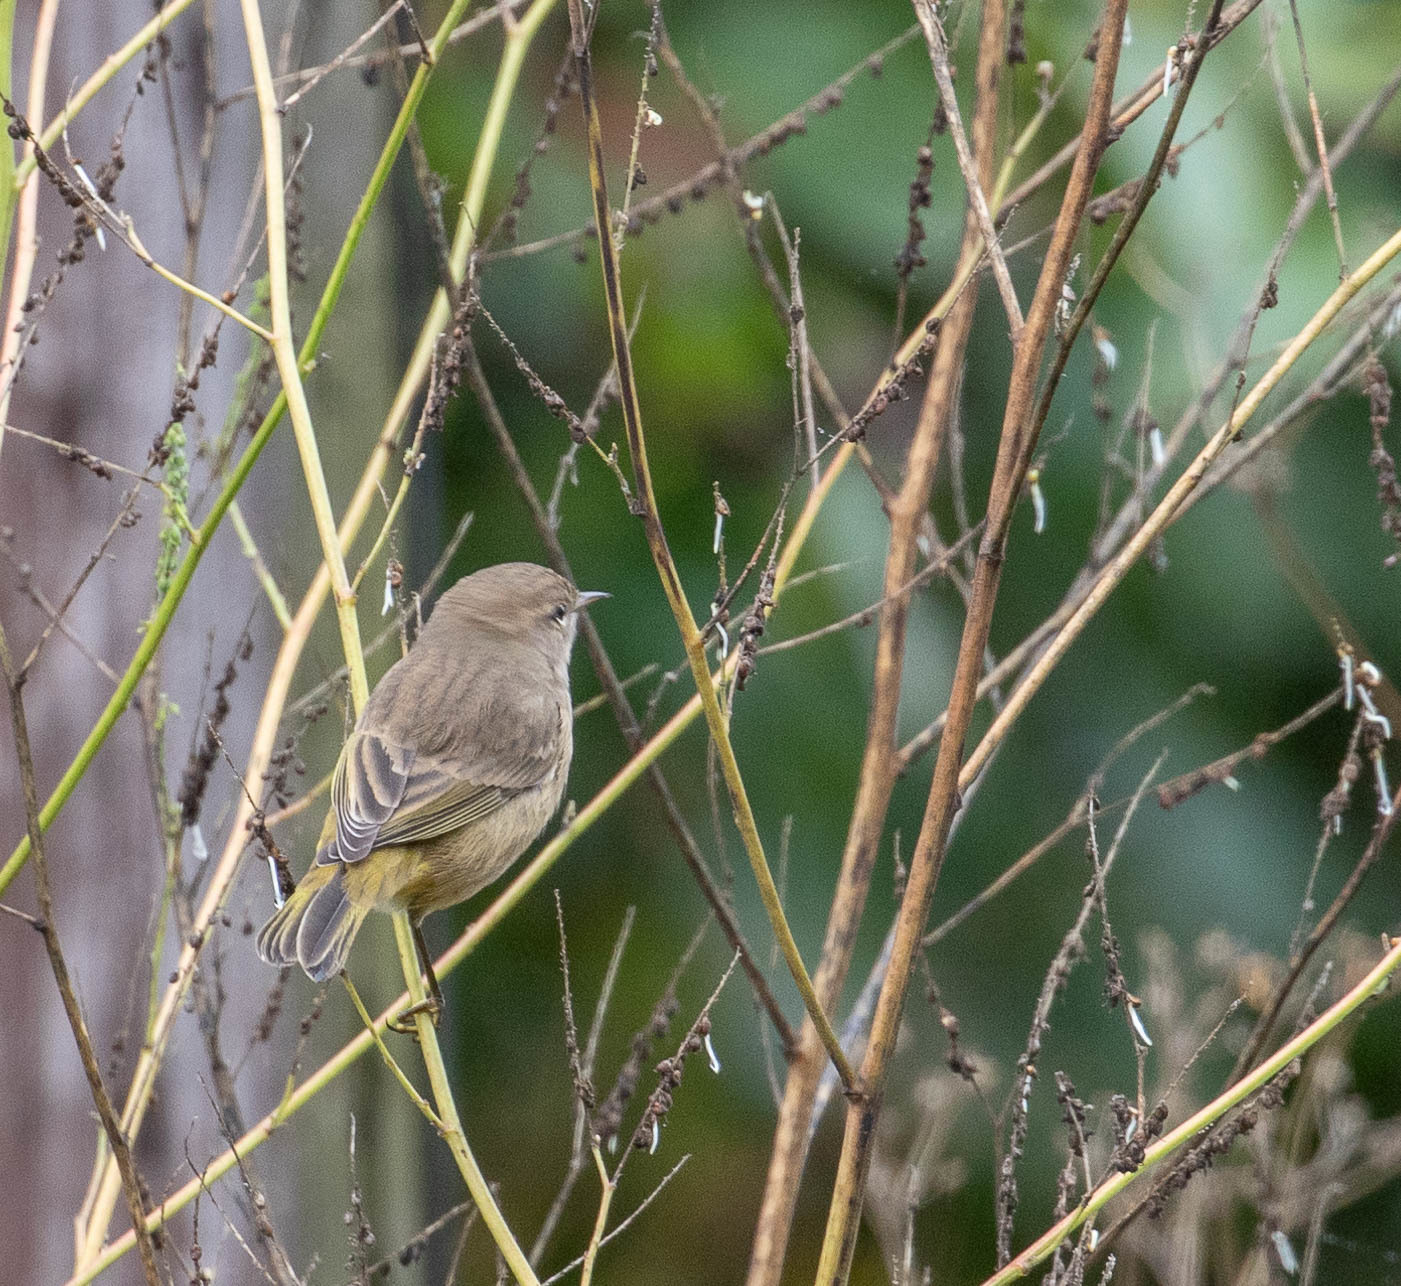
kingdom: Animalia
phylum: Chordata
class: Aves
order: Passeriformes
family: Parulidae
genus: Setophaga
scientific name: Setophaga palmarum
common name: Palm warbler
